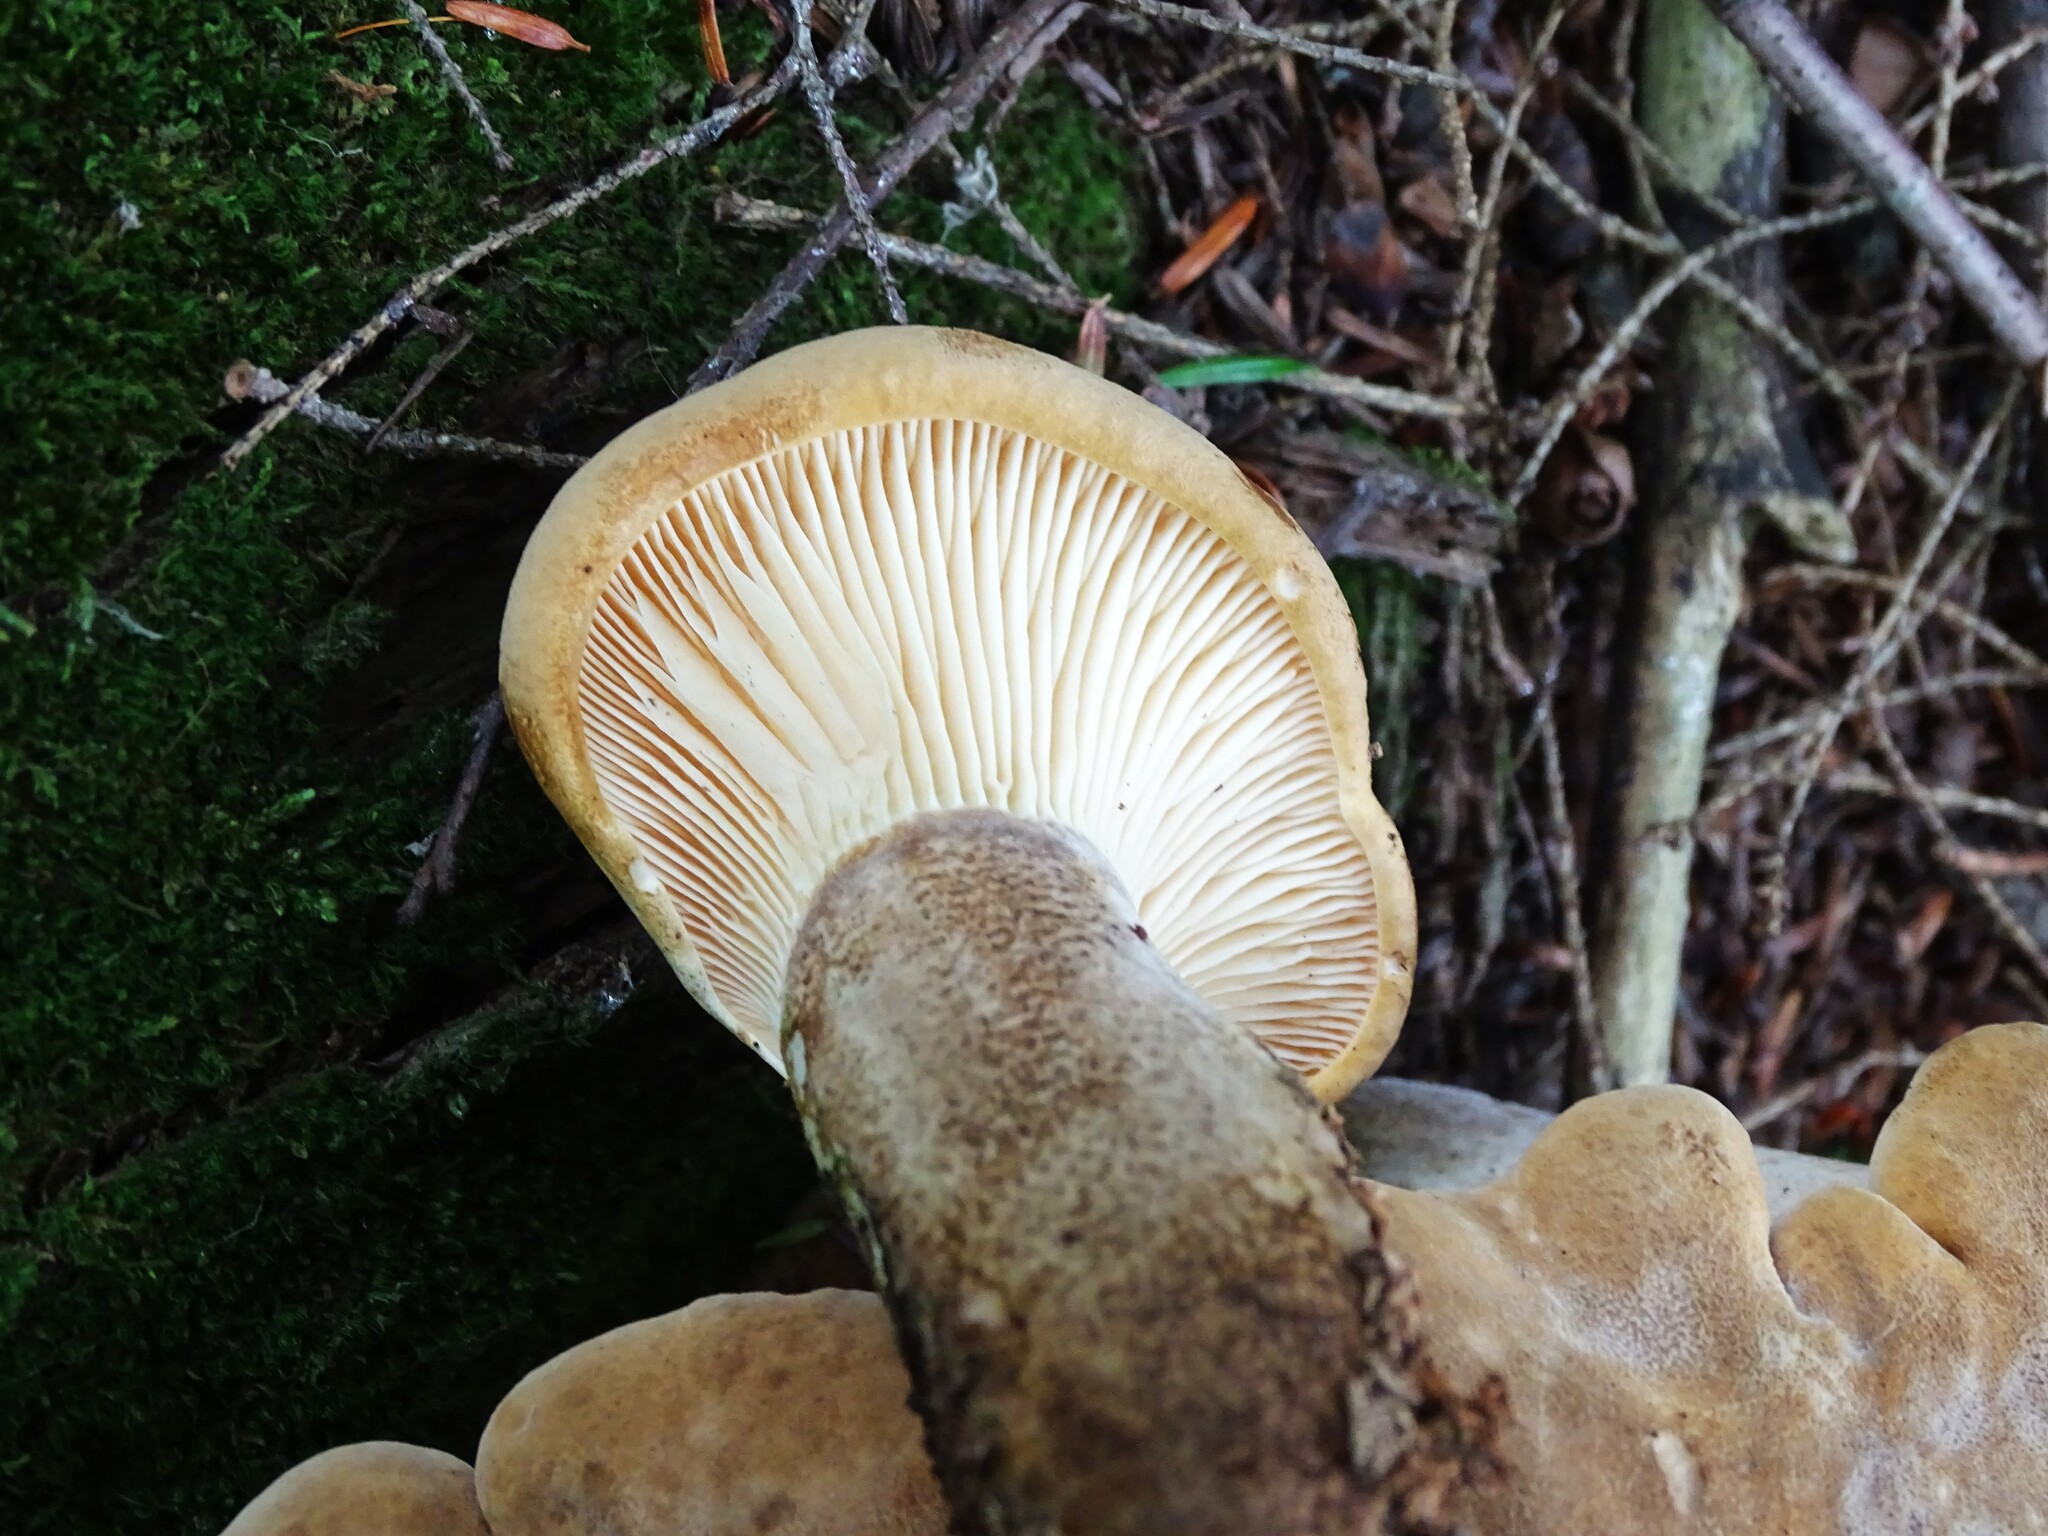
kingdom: Fungi
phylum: Basidiomycota
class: Agaricomycetes
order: Boletales
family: Tapinellaceae
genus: Tapinella
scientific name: Tapinella atrotomentosa
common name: Velvet rollrim
